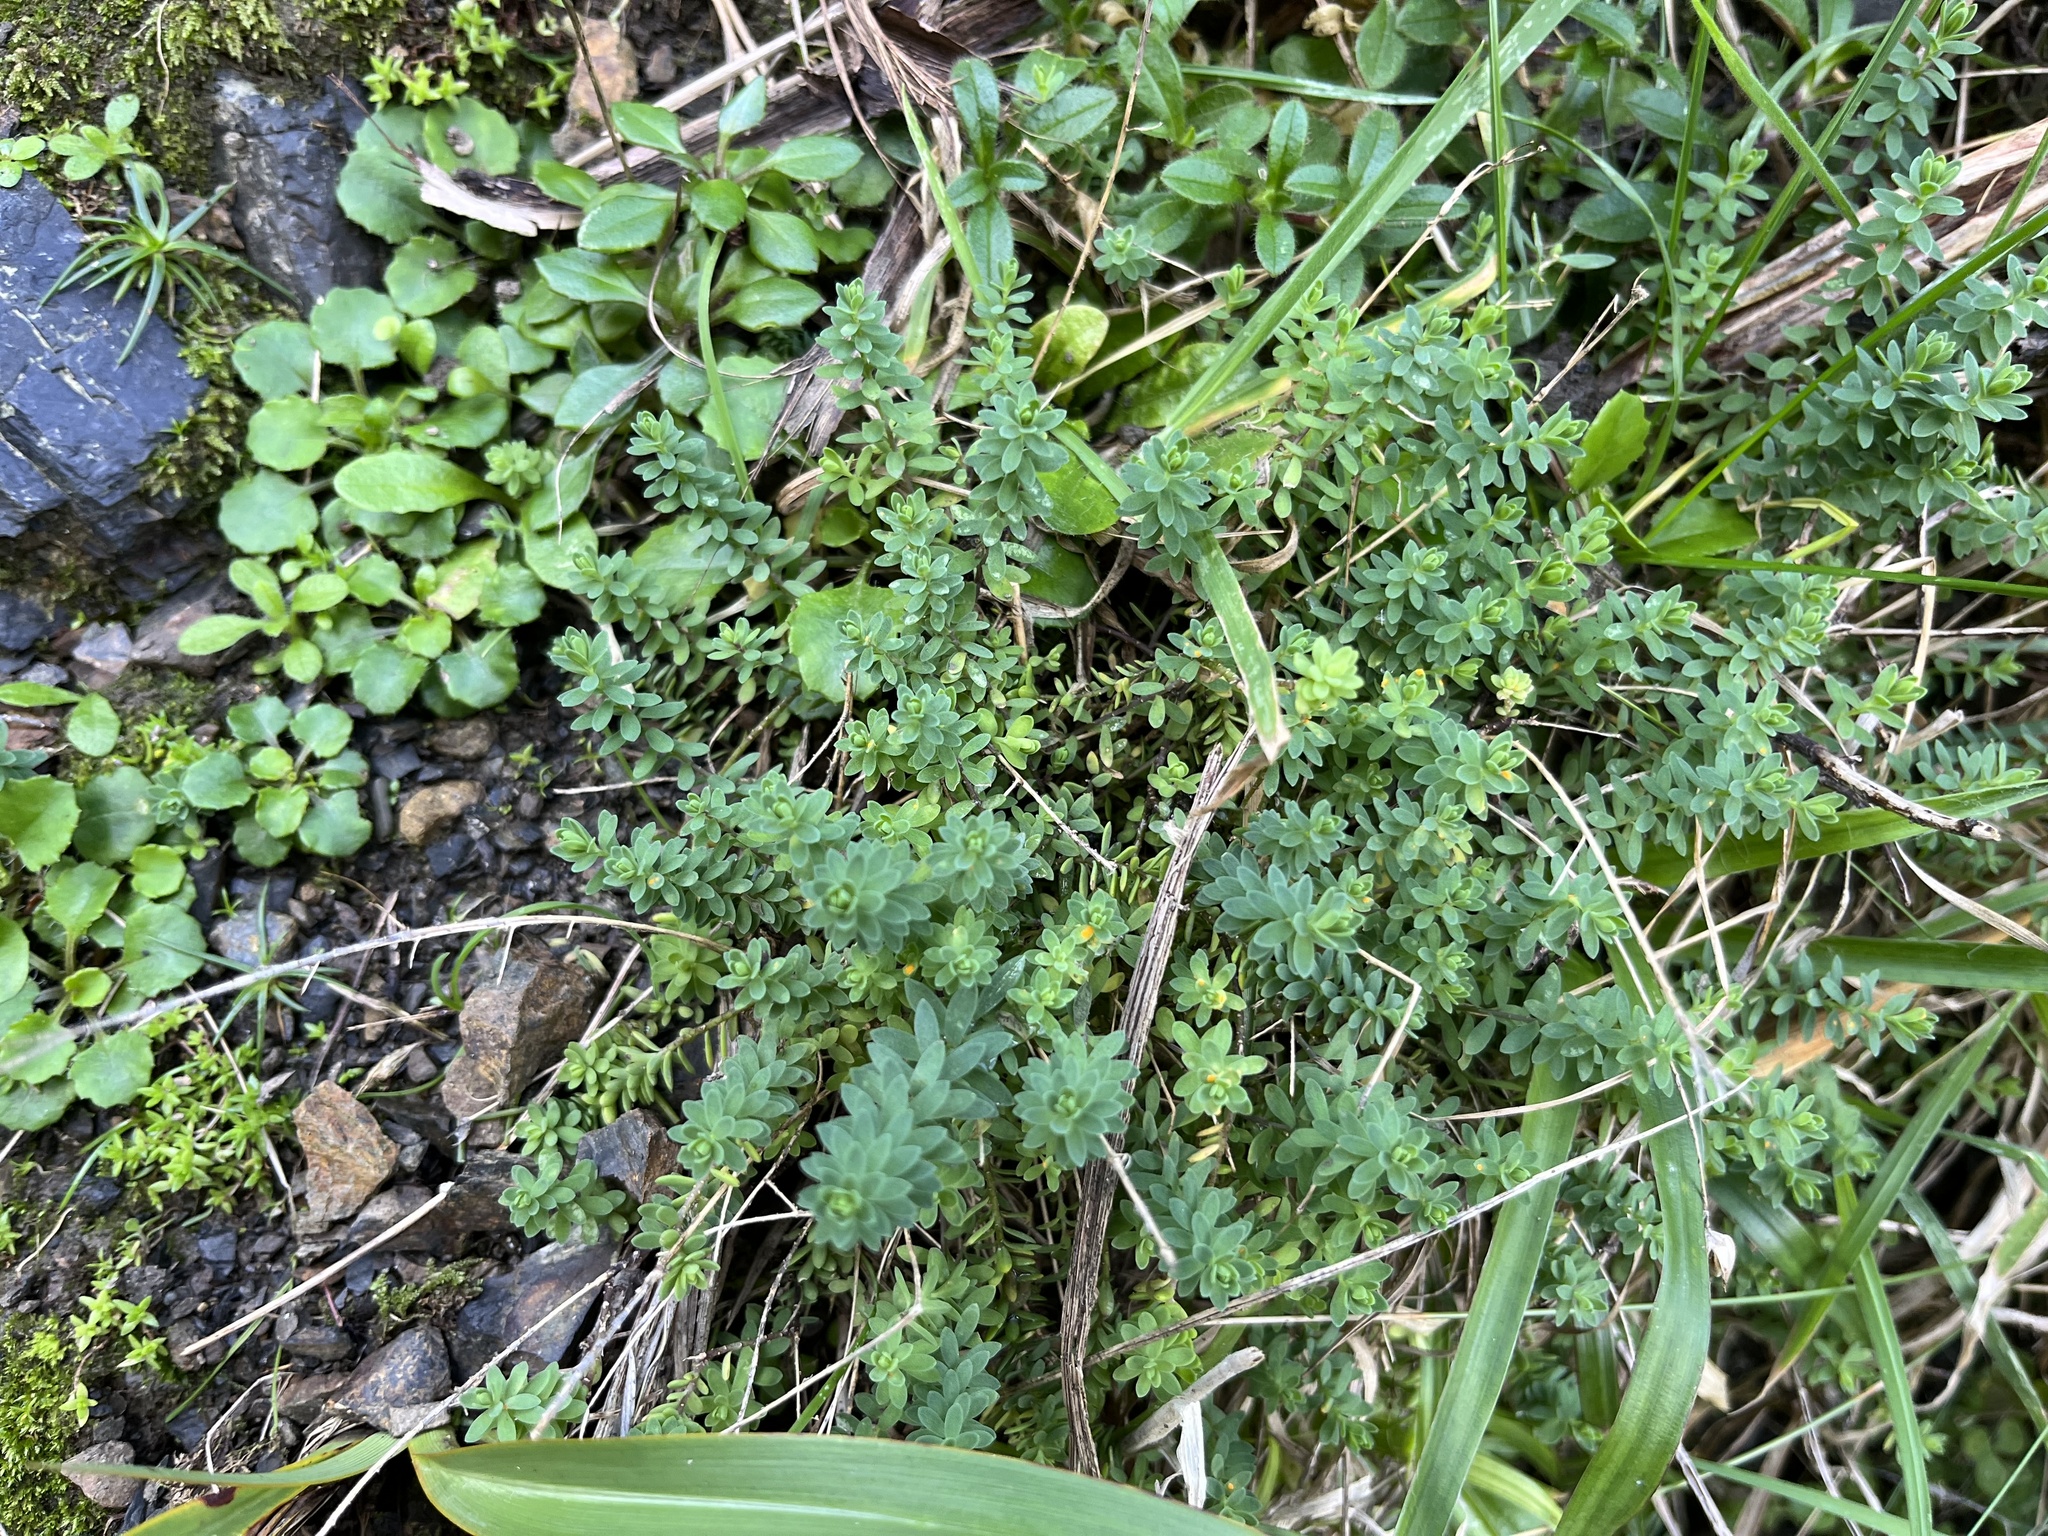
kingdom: Plantae
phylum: Tracheophyta
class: Magnoliopsida
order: Malpighiales
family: Linaceae
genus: Linum
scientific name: Linum monogynum
